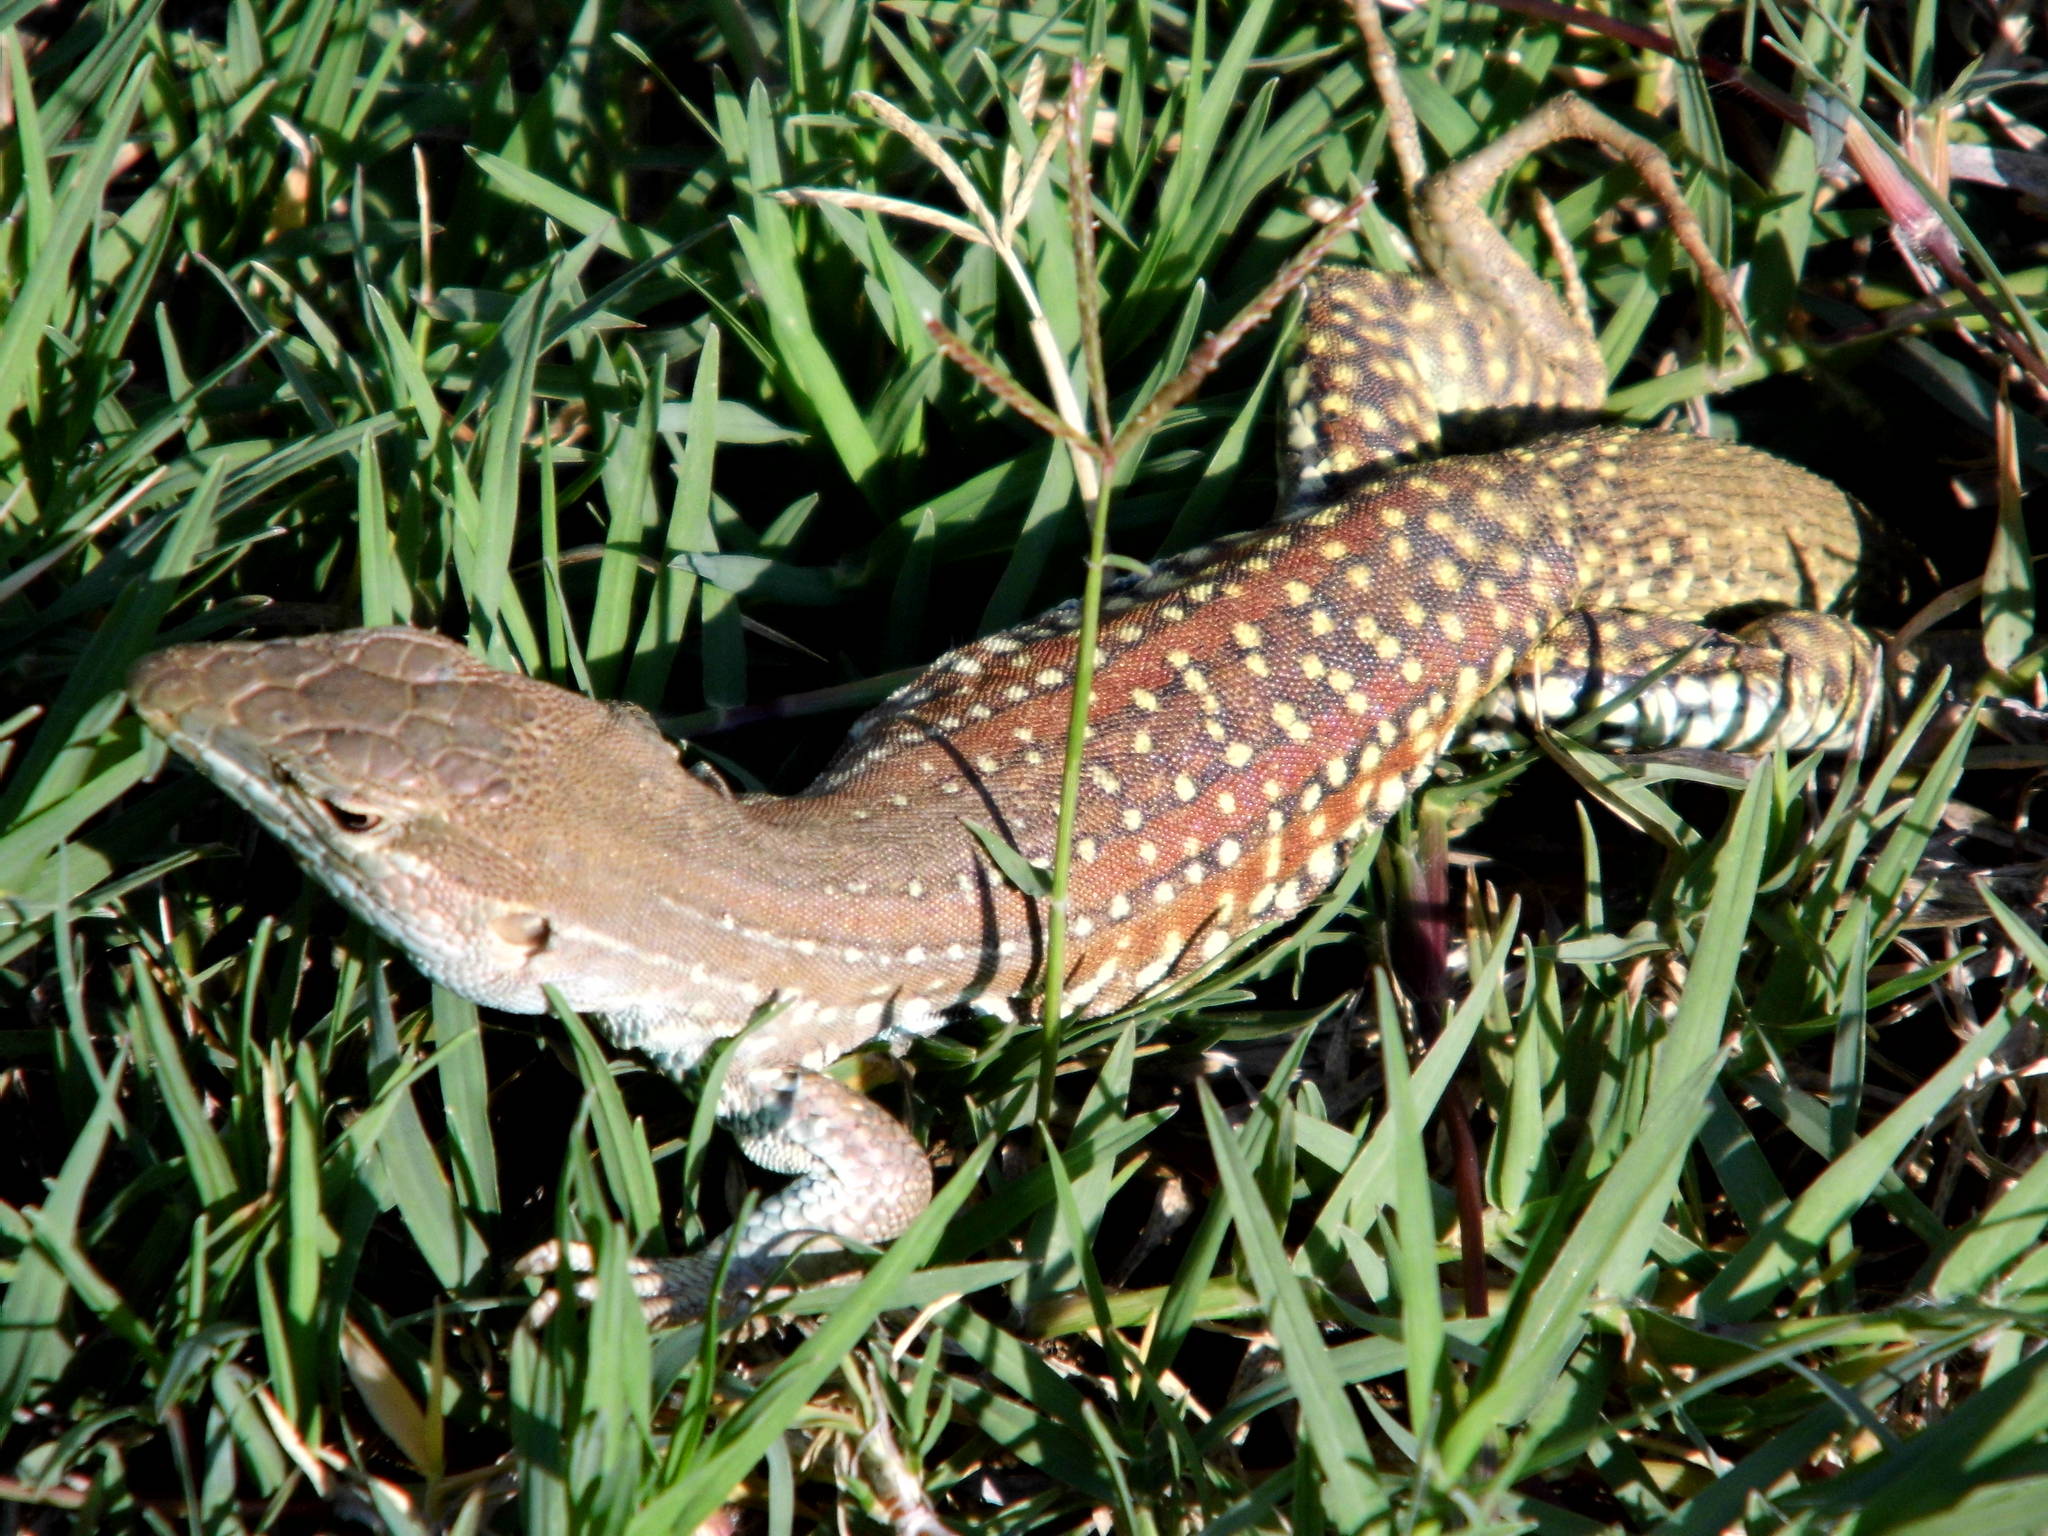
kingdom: Animalia
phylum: Chordata
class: Squamata
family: Teiidae
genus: Aspidoscelis
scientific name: Aspidoscelis sackii
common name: Giant spotted whiptail [gigas]
